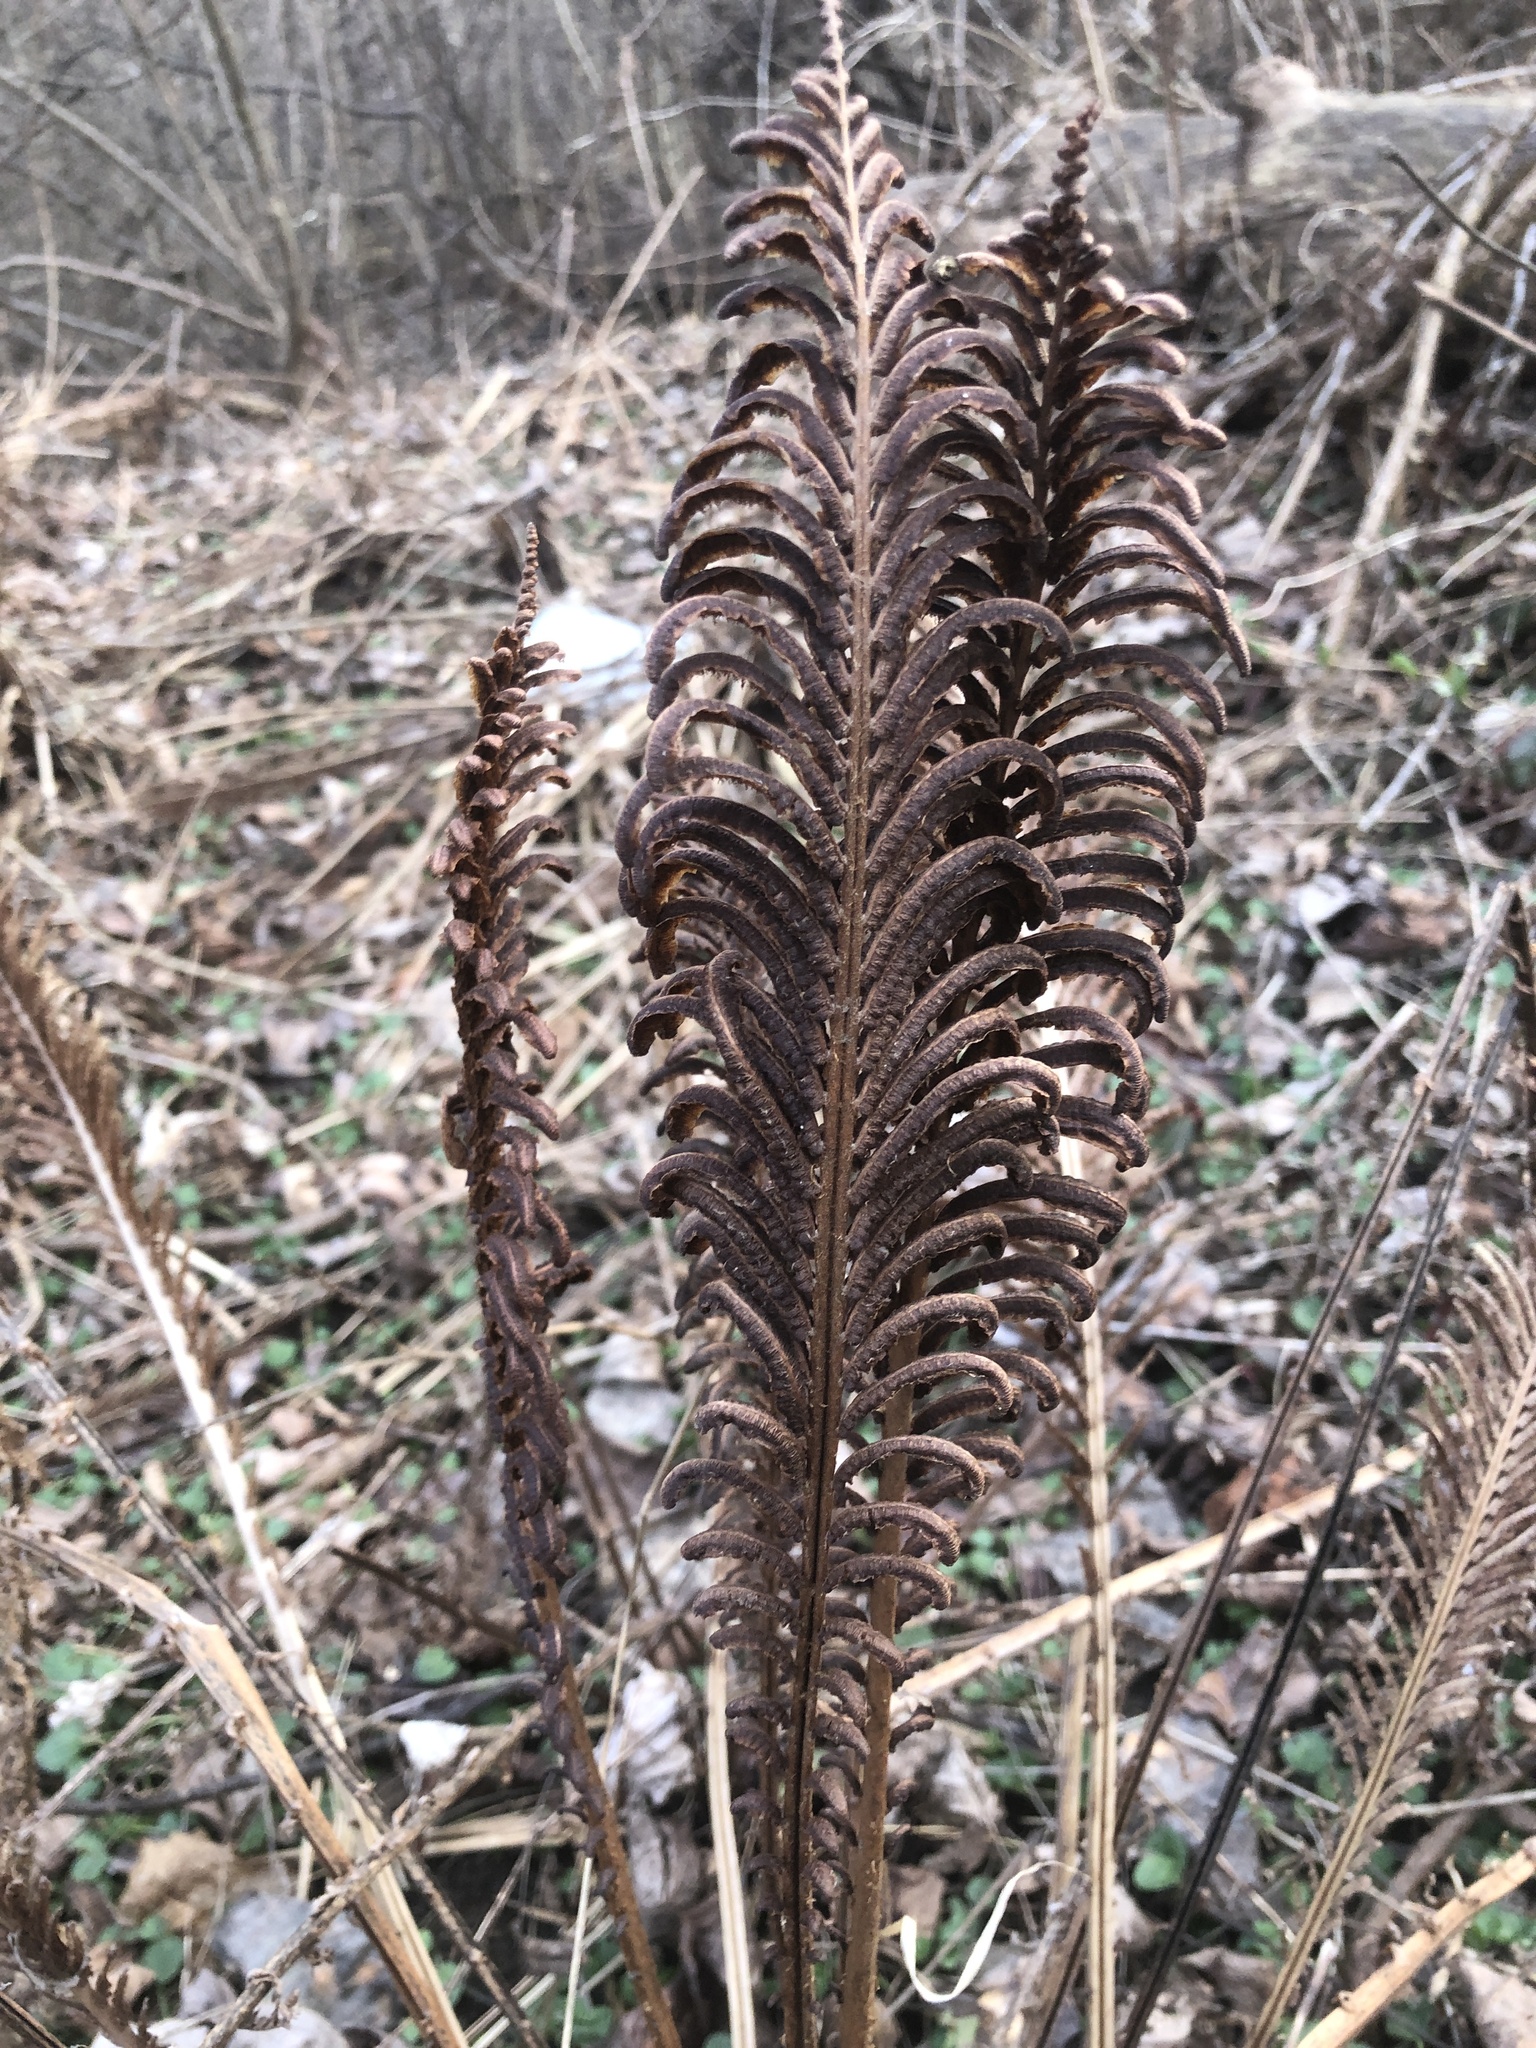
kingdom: Plantae
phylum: Tracheophyta
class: Polypodiopsida
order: Polypodiales
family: Onocleaceae
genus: Matteuccia
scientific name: Matteuccia struthiopteris
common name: Ostrich fern
